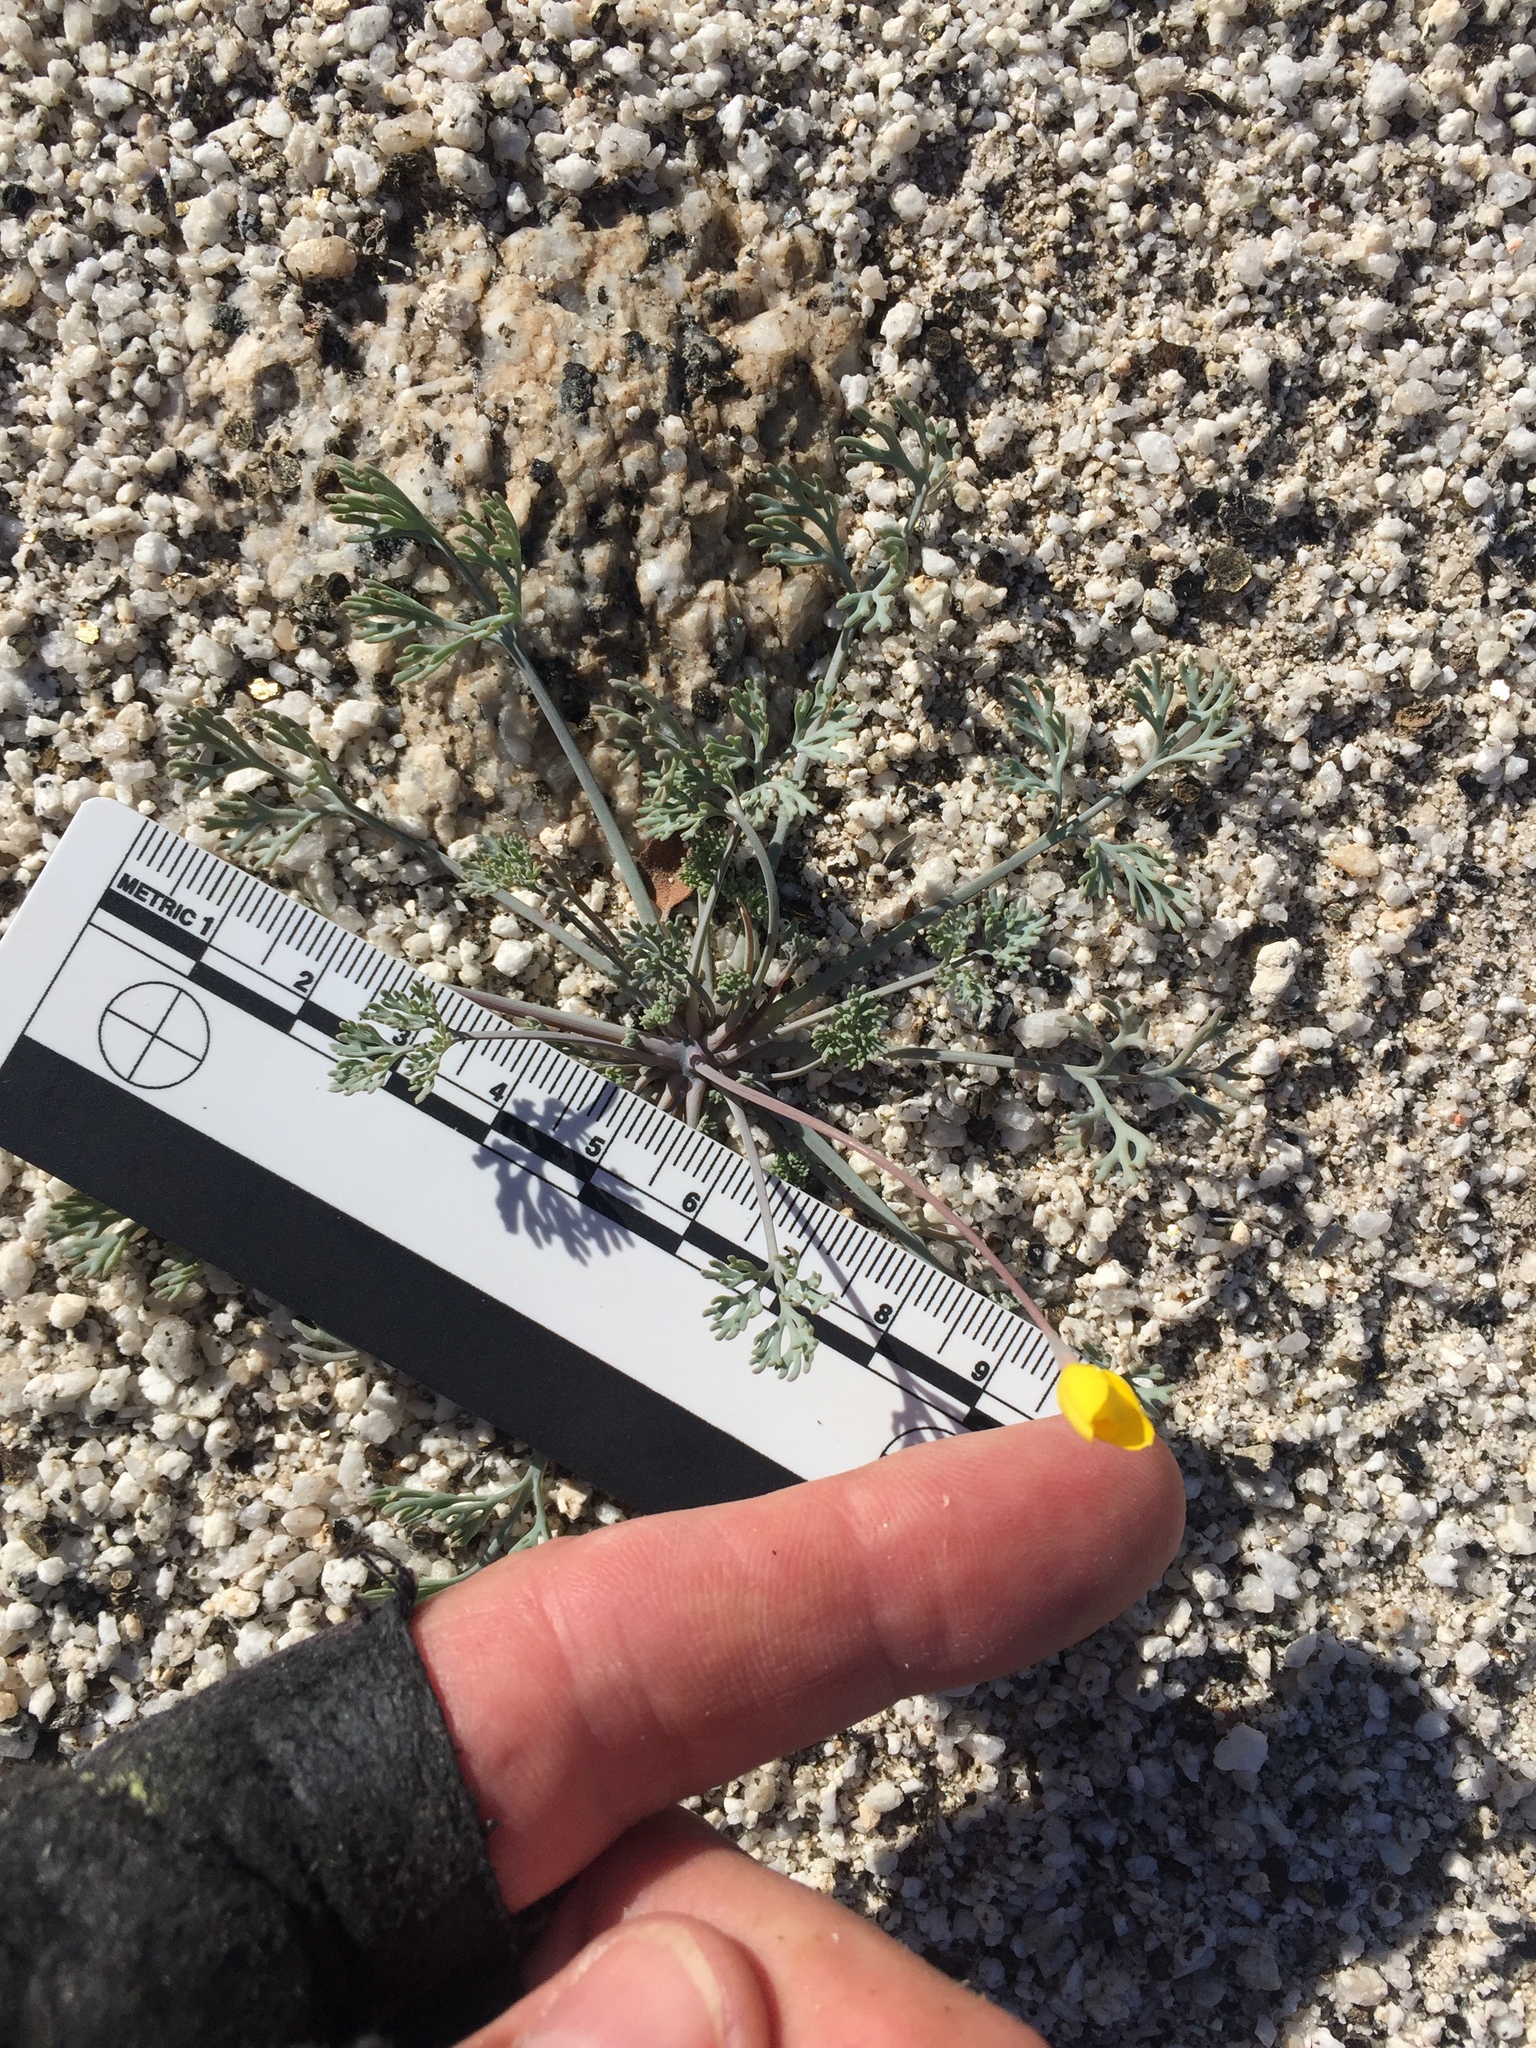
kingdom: Plantae
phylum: Tracheophyta
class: Magnoliopsida
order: Ranunculales
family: Papaveraceae
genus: Eschscholzia
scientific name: Eschscholzia minutiflora
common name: Small-flower california-poppy
